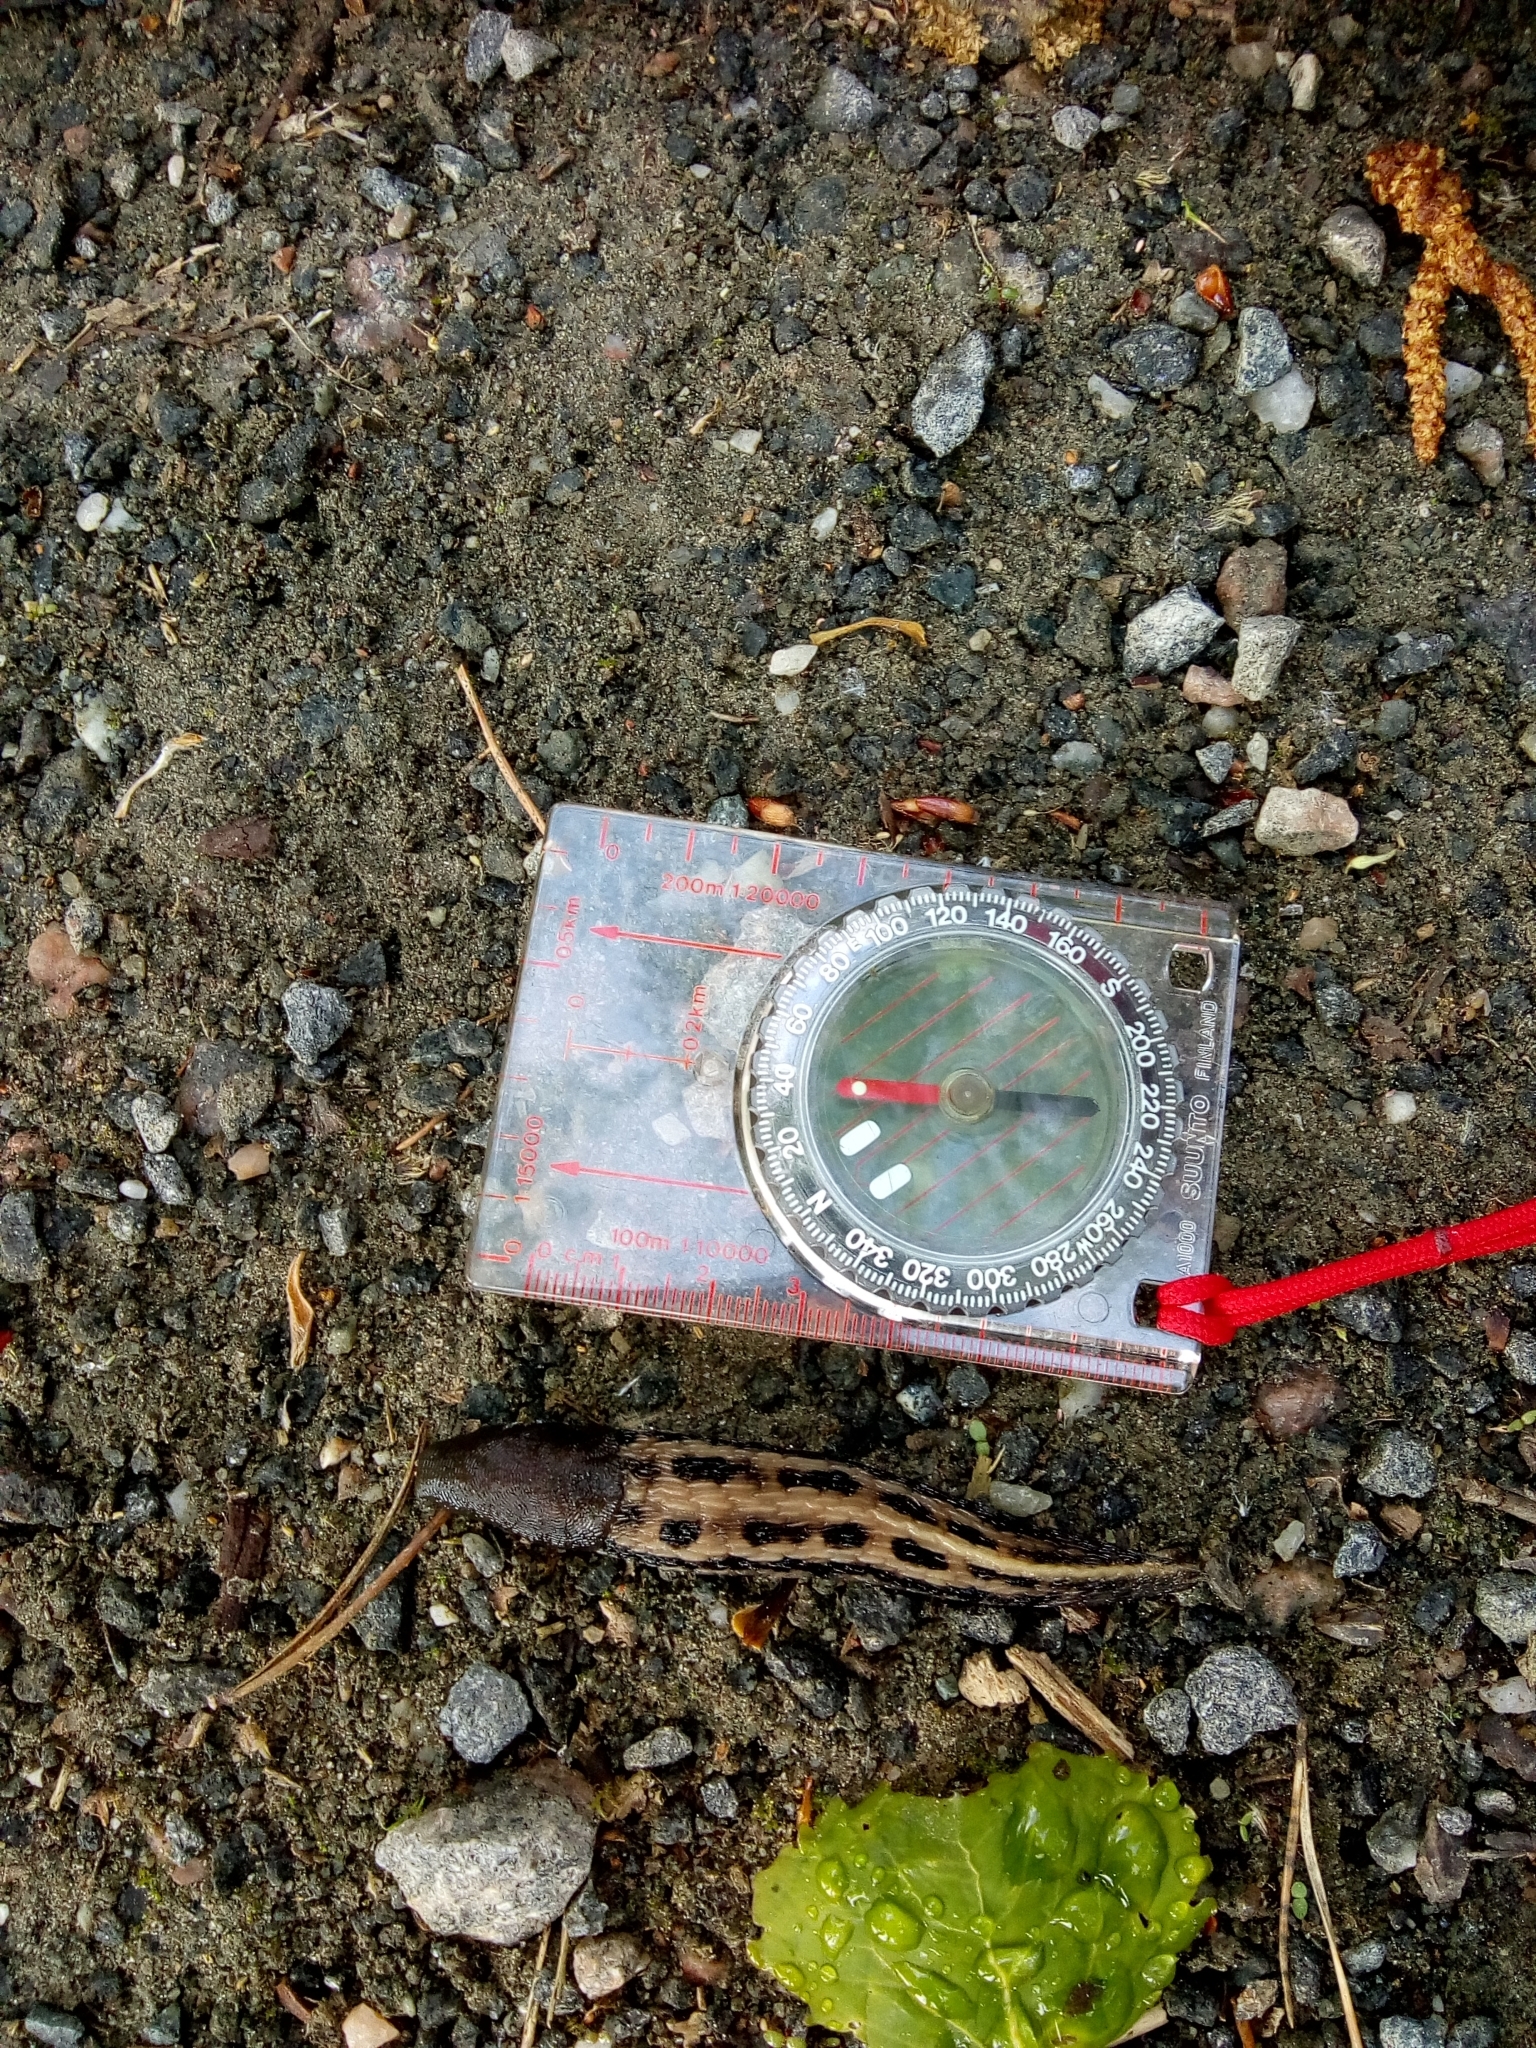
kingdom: Animalia
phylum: Mollusca
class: Gastropoda
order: Stylommatophora
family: Limacidae
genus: Limax
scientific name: Limax cinereoniger
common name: Ash-black slug
